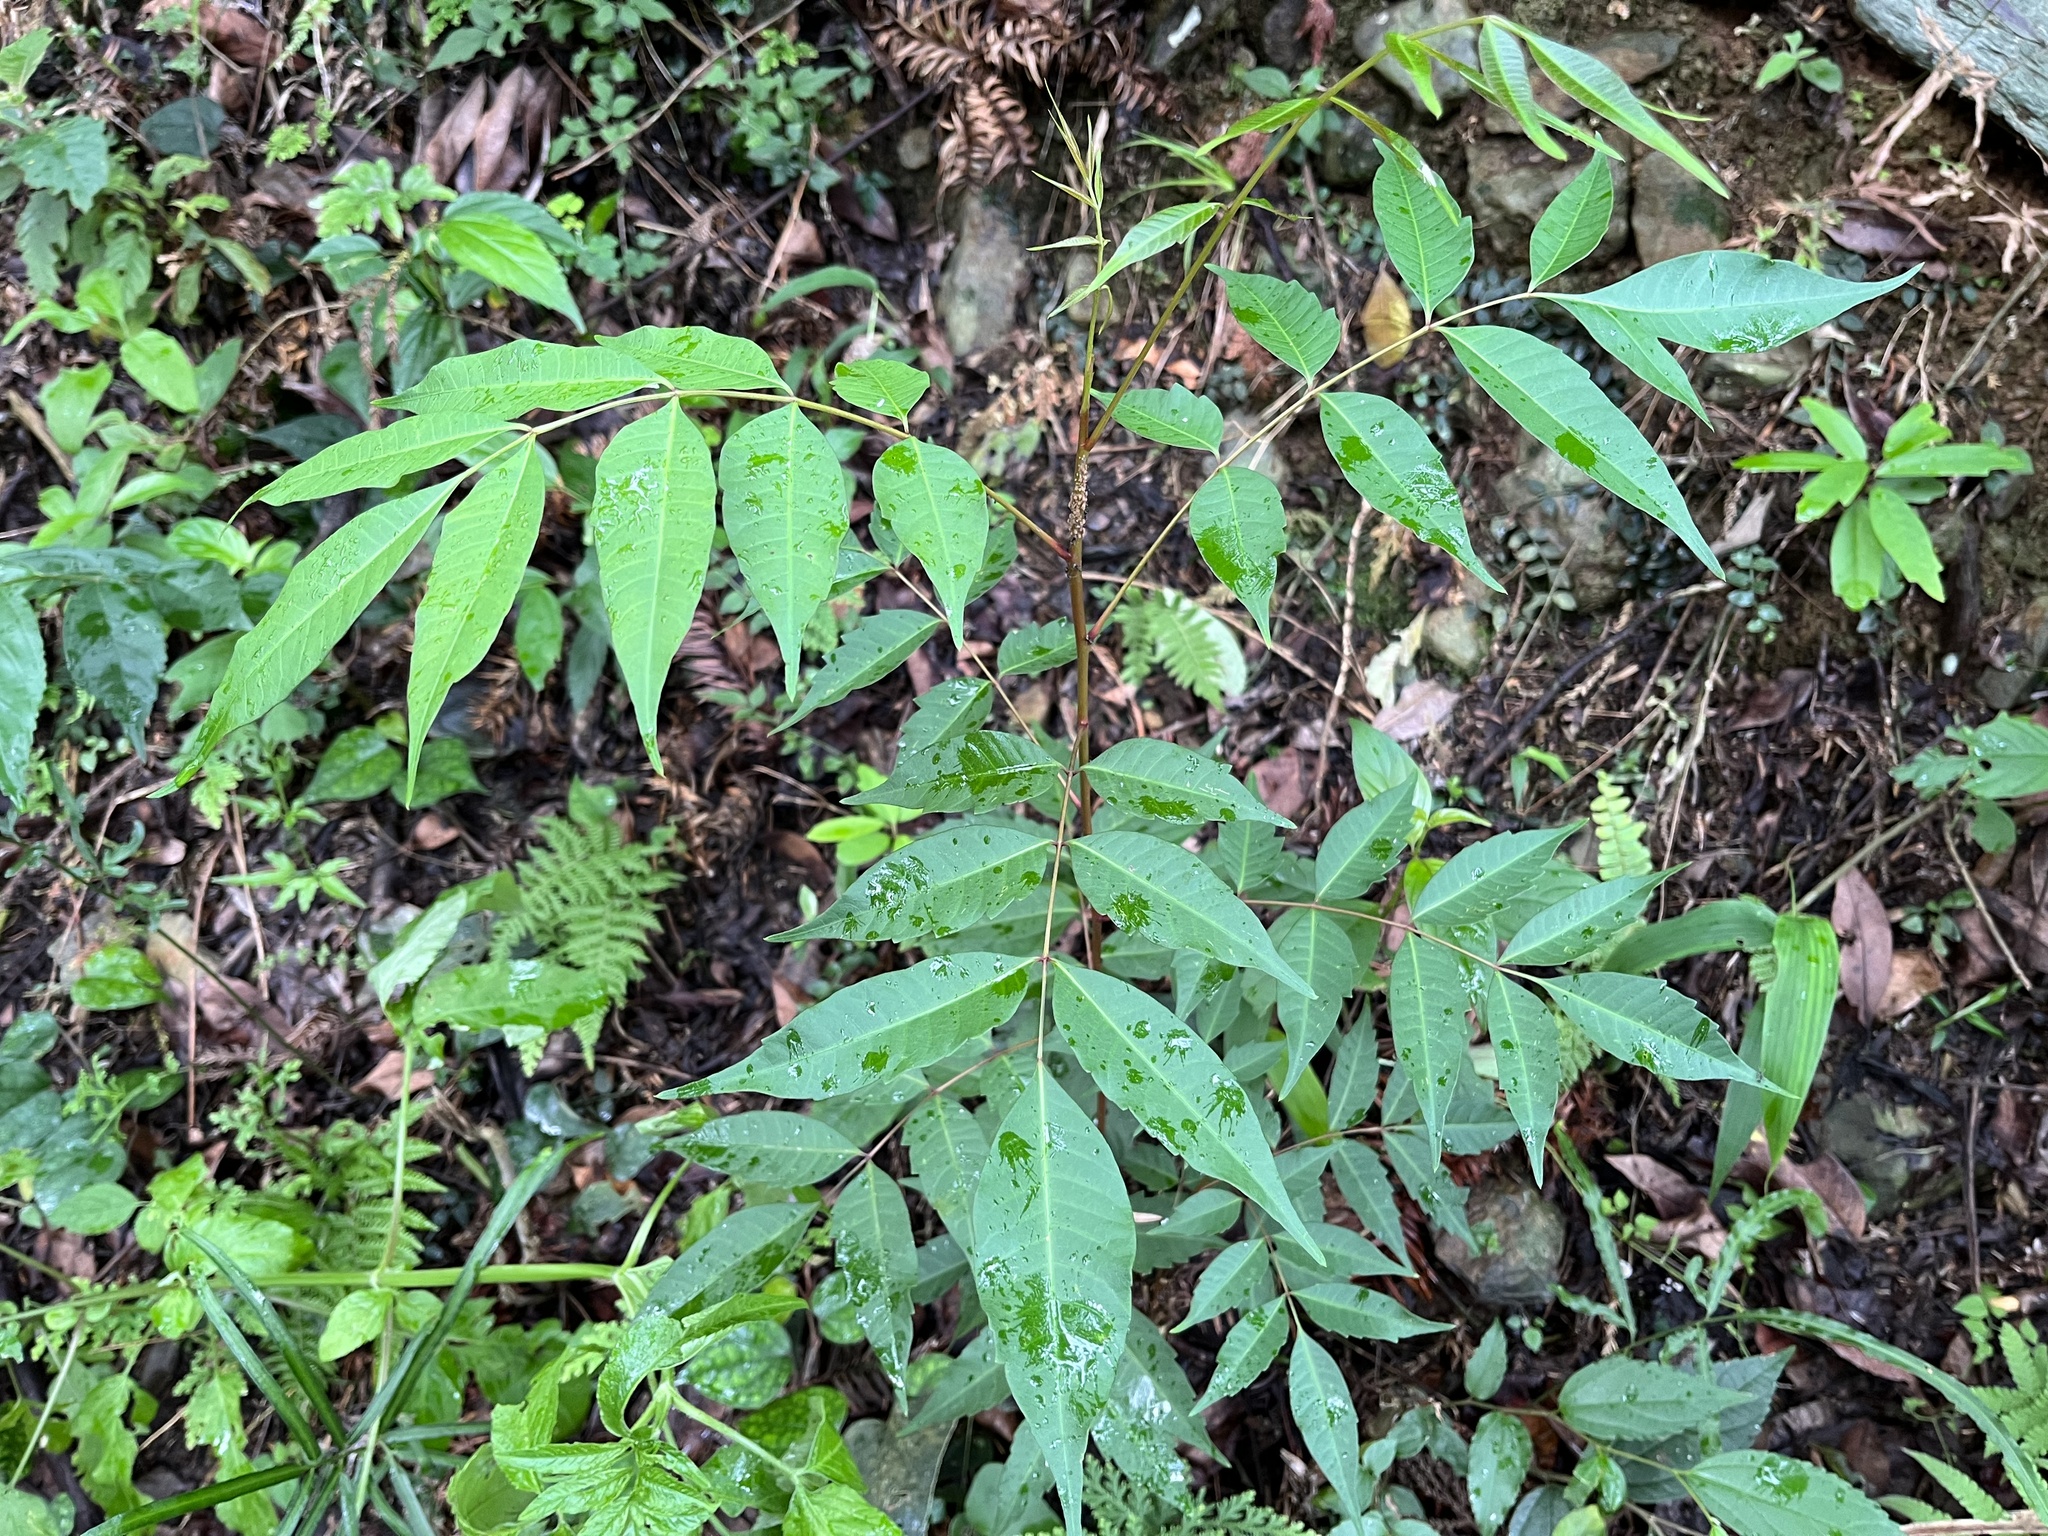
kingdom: Plantae
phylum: Tracheophyta
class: Magnoliopsida
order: Sapindales
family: Anacardiaceae
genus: Toxicodendron
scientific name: Toxicodendron succedaneum
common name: Wax tree
